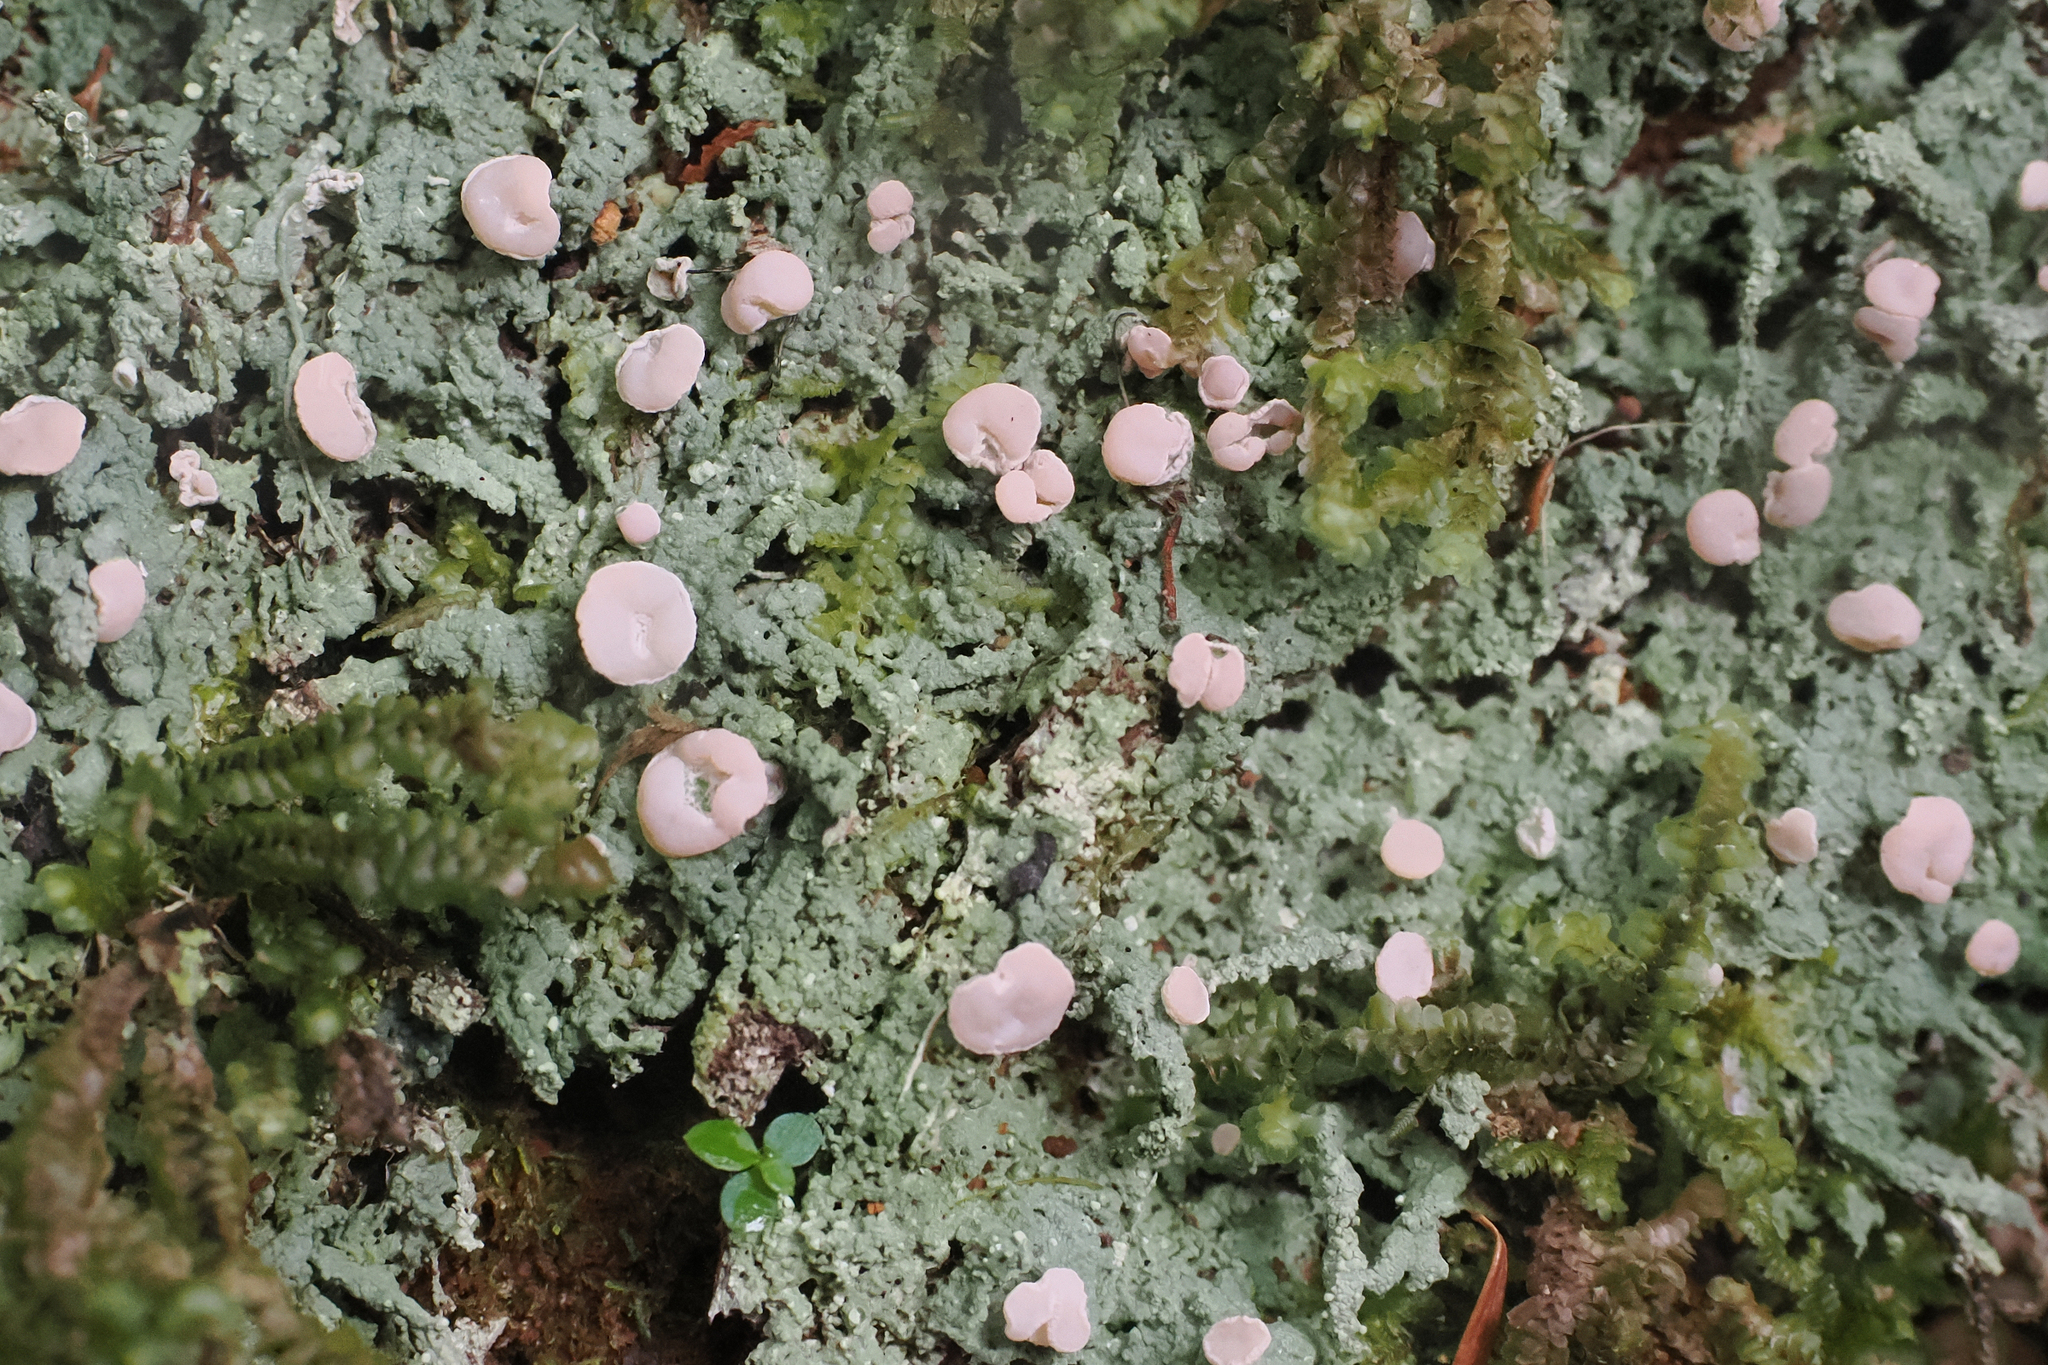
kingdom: Fungi
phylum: Ascomycota
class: Lecanoromycetes
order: Pertusariales
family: Icmadophilaceae
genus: Icmadophila
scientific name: Icmadophila ericetorum
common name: Candy lichen
